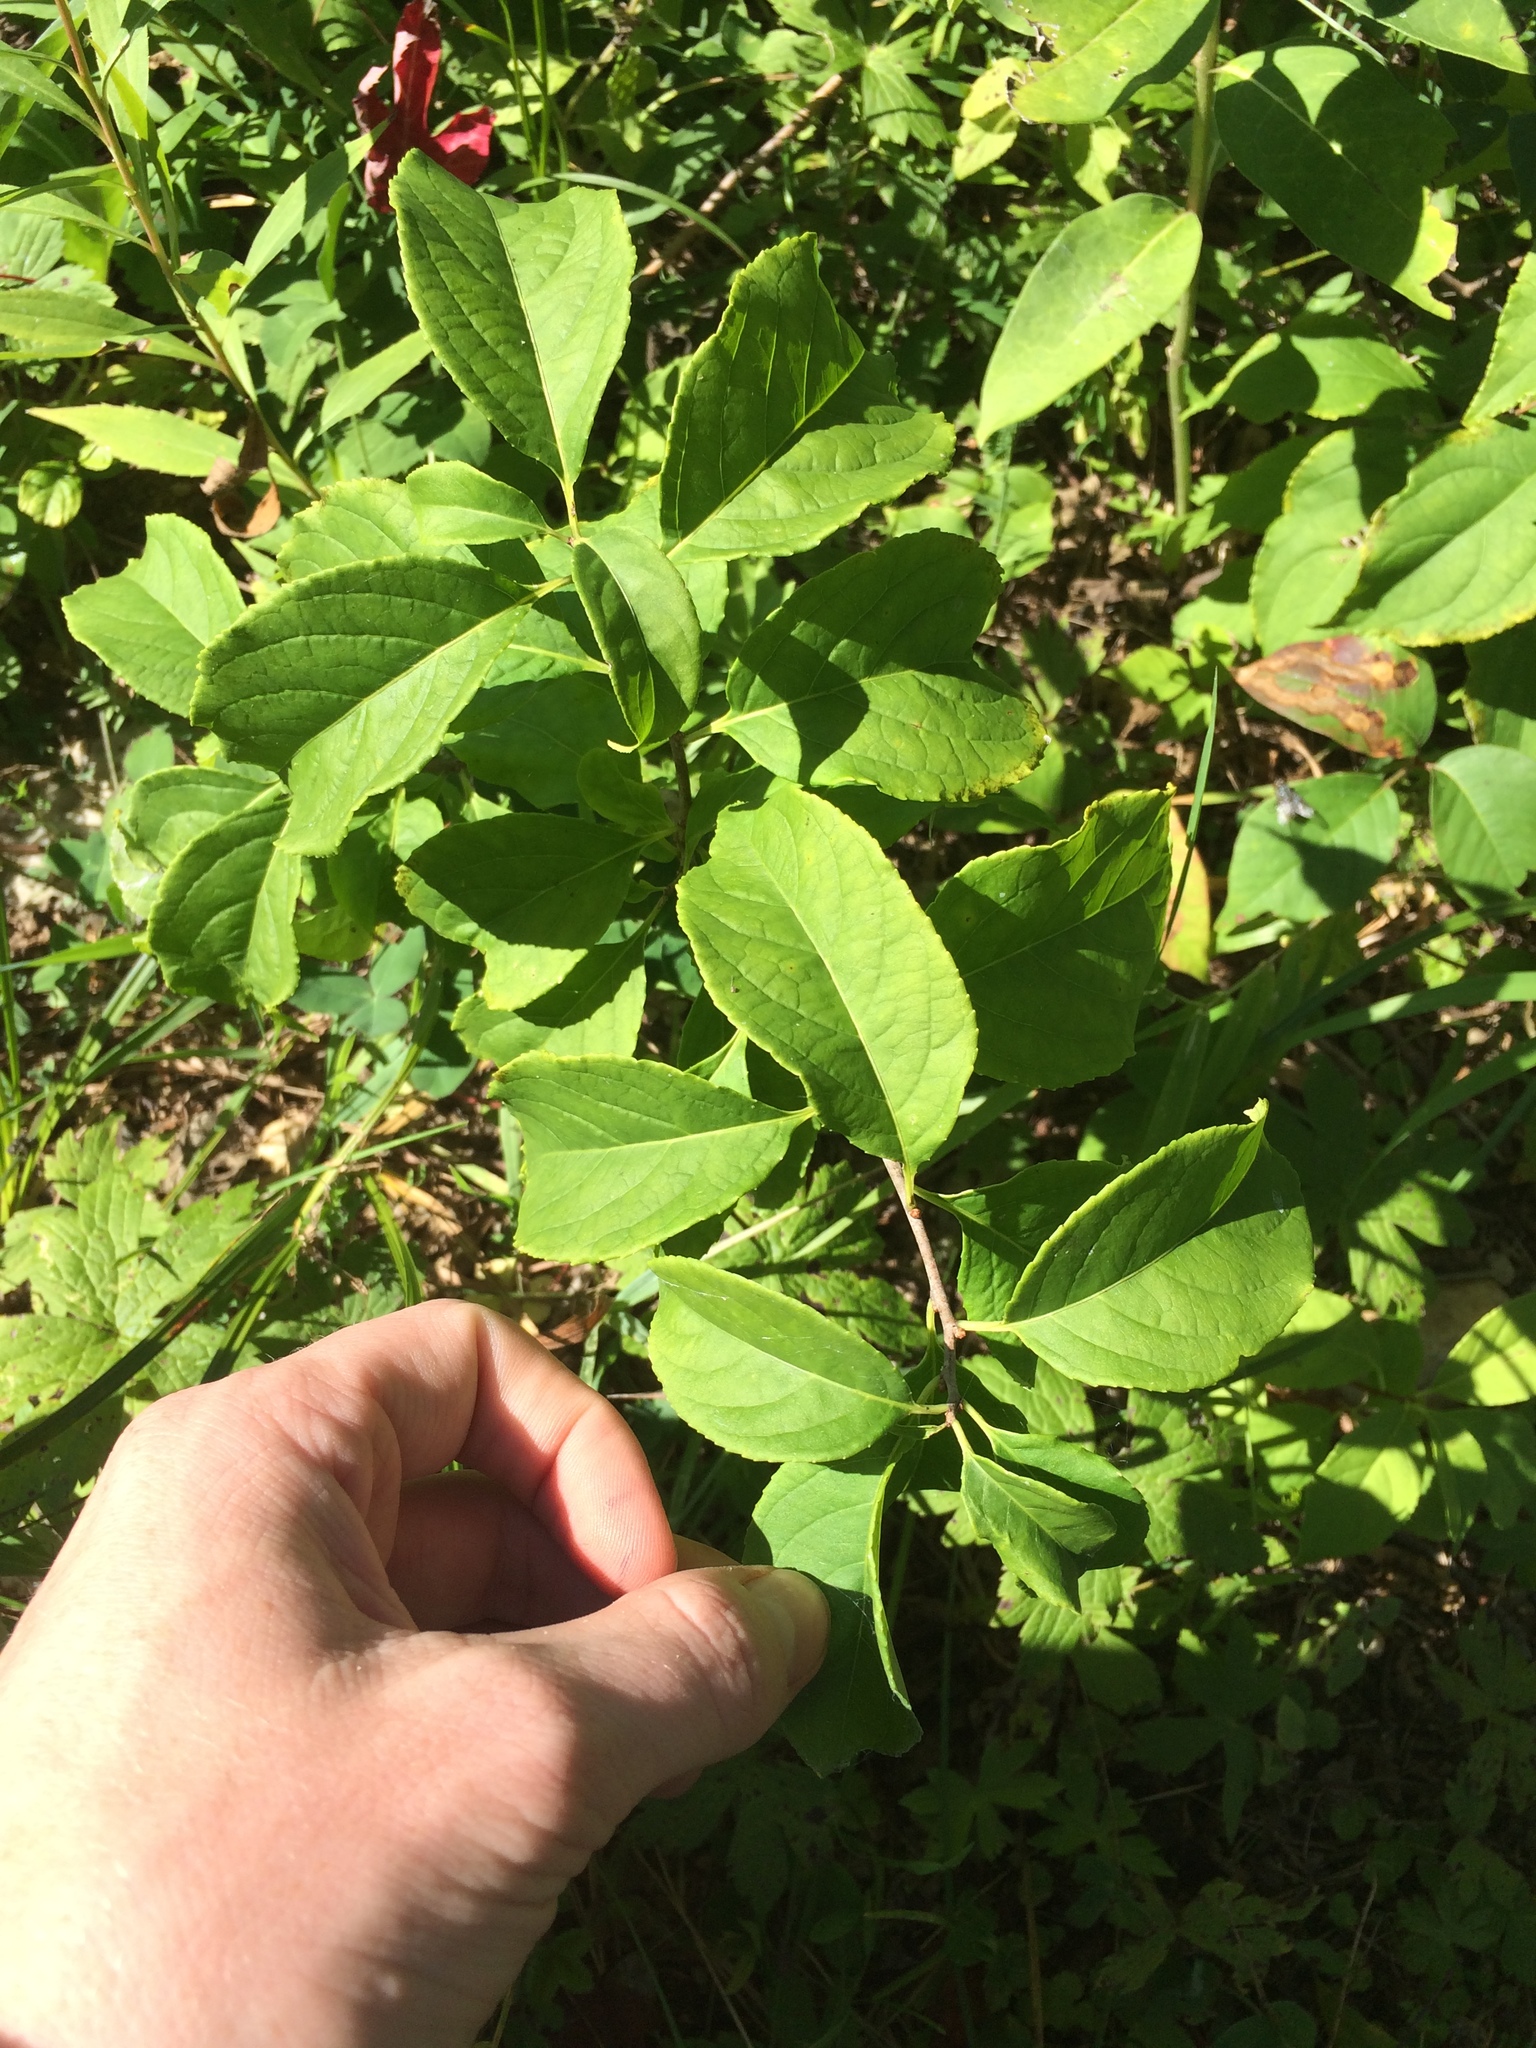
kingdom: Plantae
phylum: Tracheophyta
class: Magnoliopsida
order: Celastrales
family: Celastraceae
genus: Celastrus
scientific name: Celastrus scandens
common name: American bittersweet
